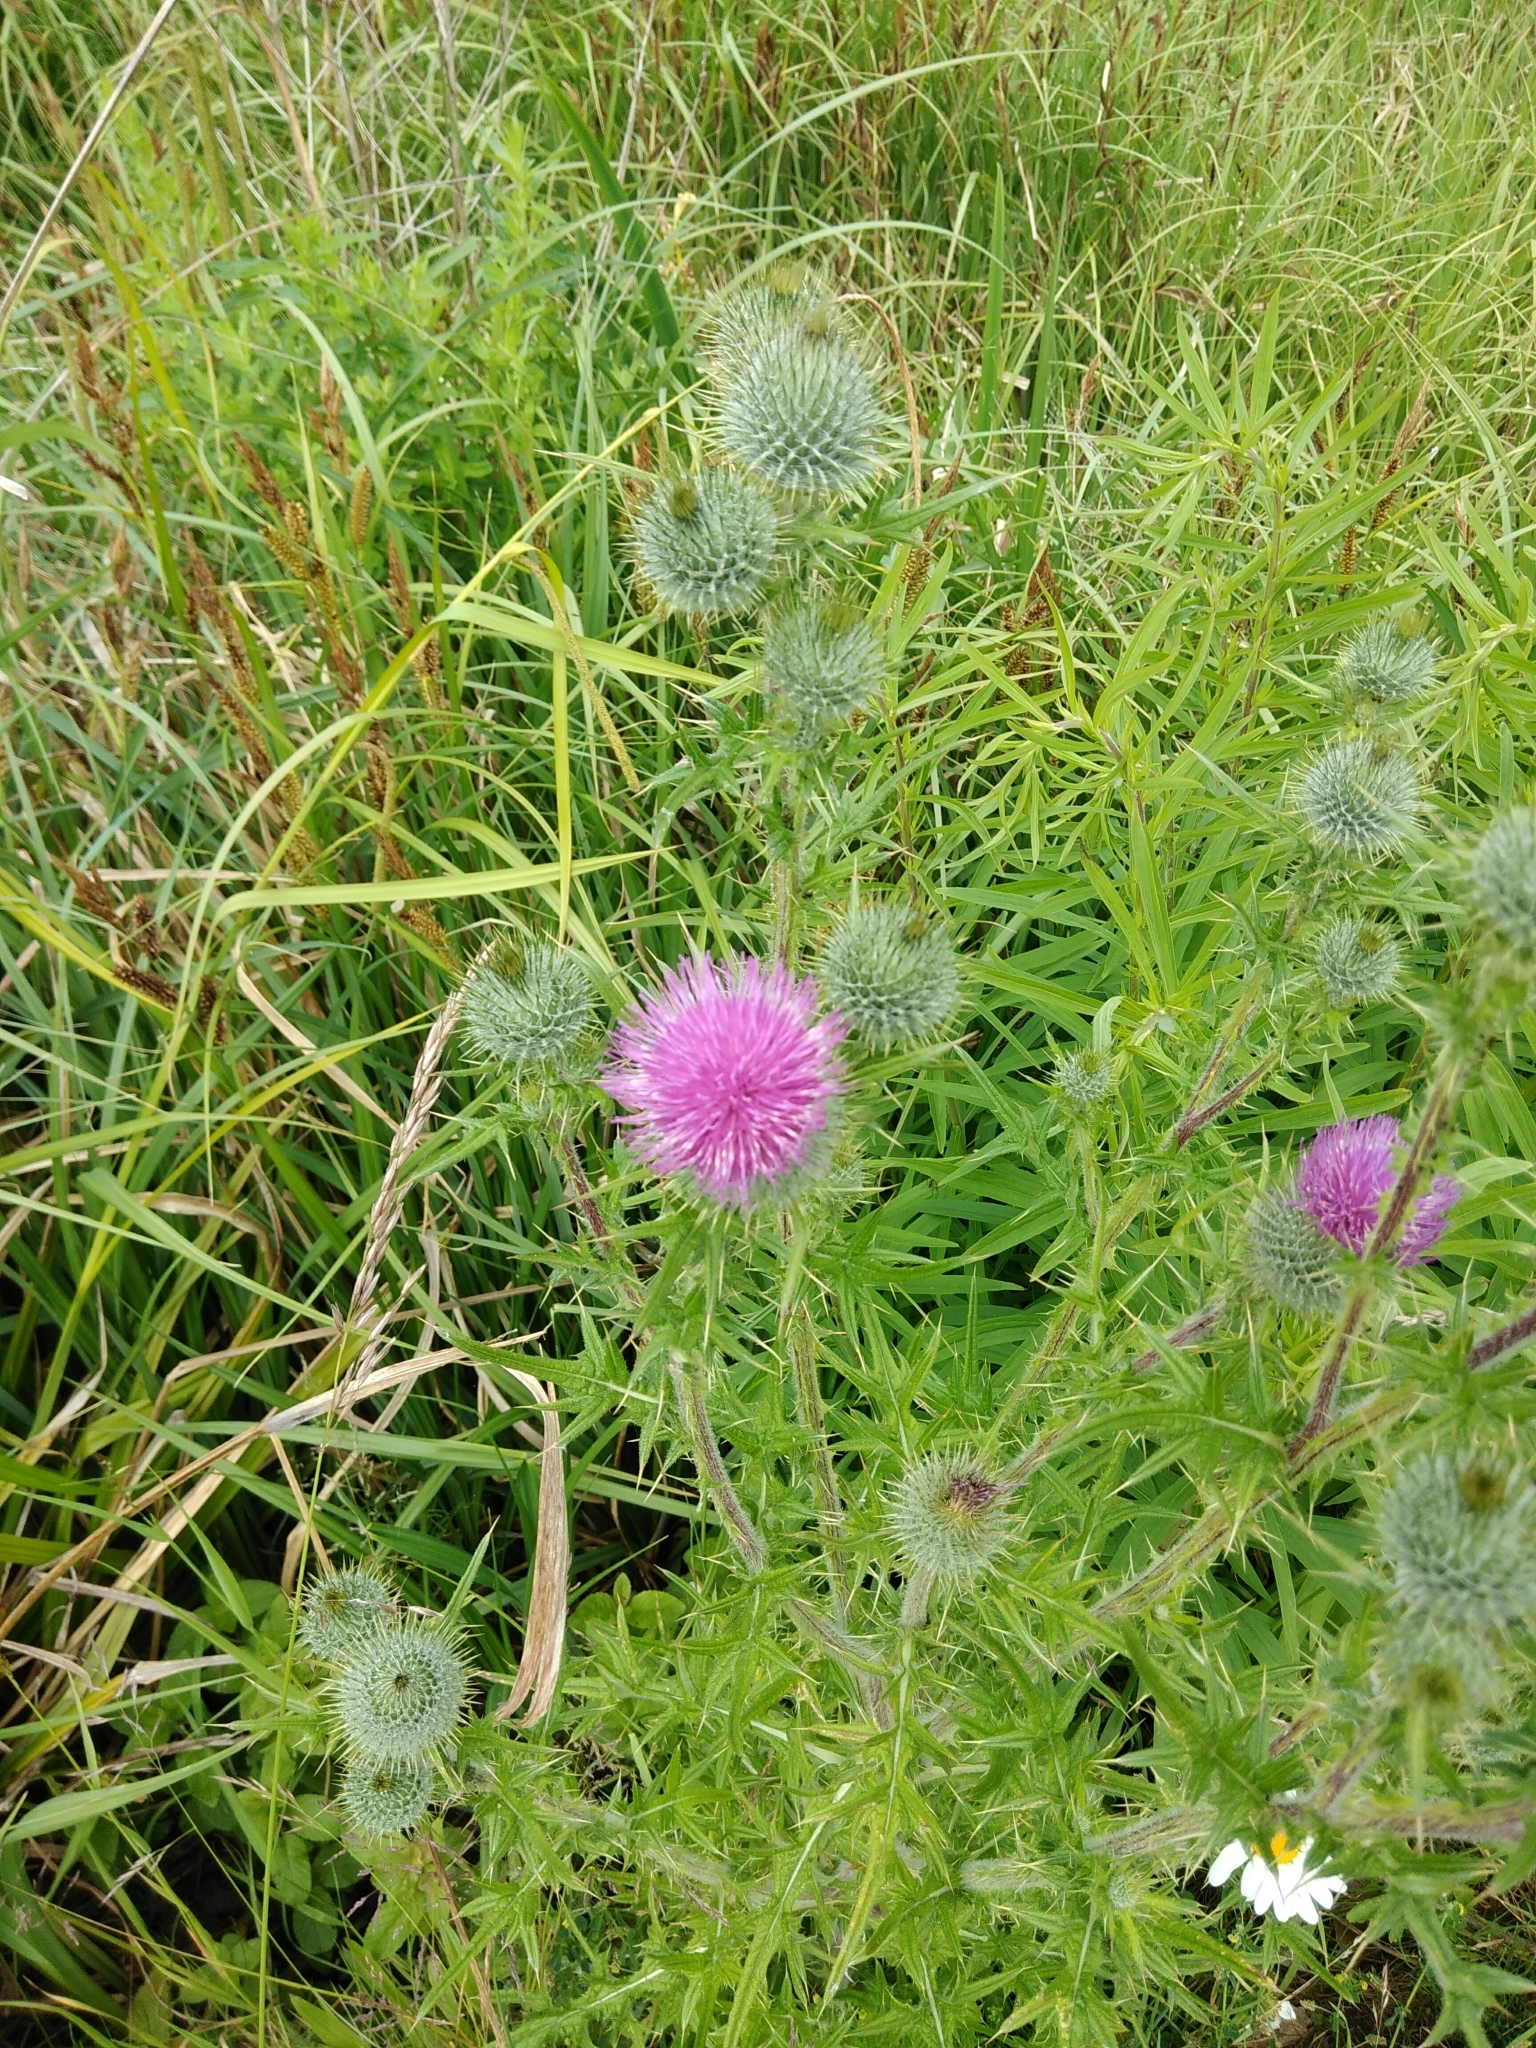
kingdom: Plantae
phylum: Tracheophyta
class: Magnoliopsida
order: Asterales
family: Asteraceae
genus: Cirsium
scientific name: Cirsium vulgare
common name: Bull thistle
